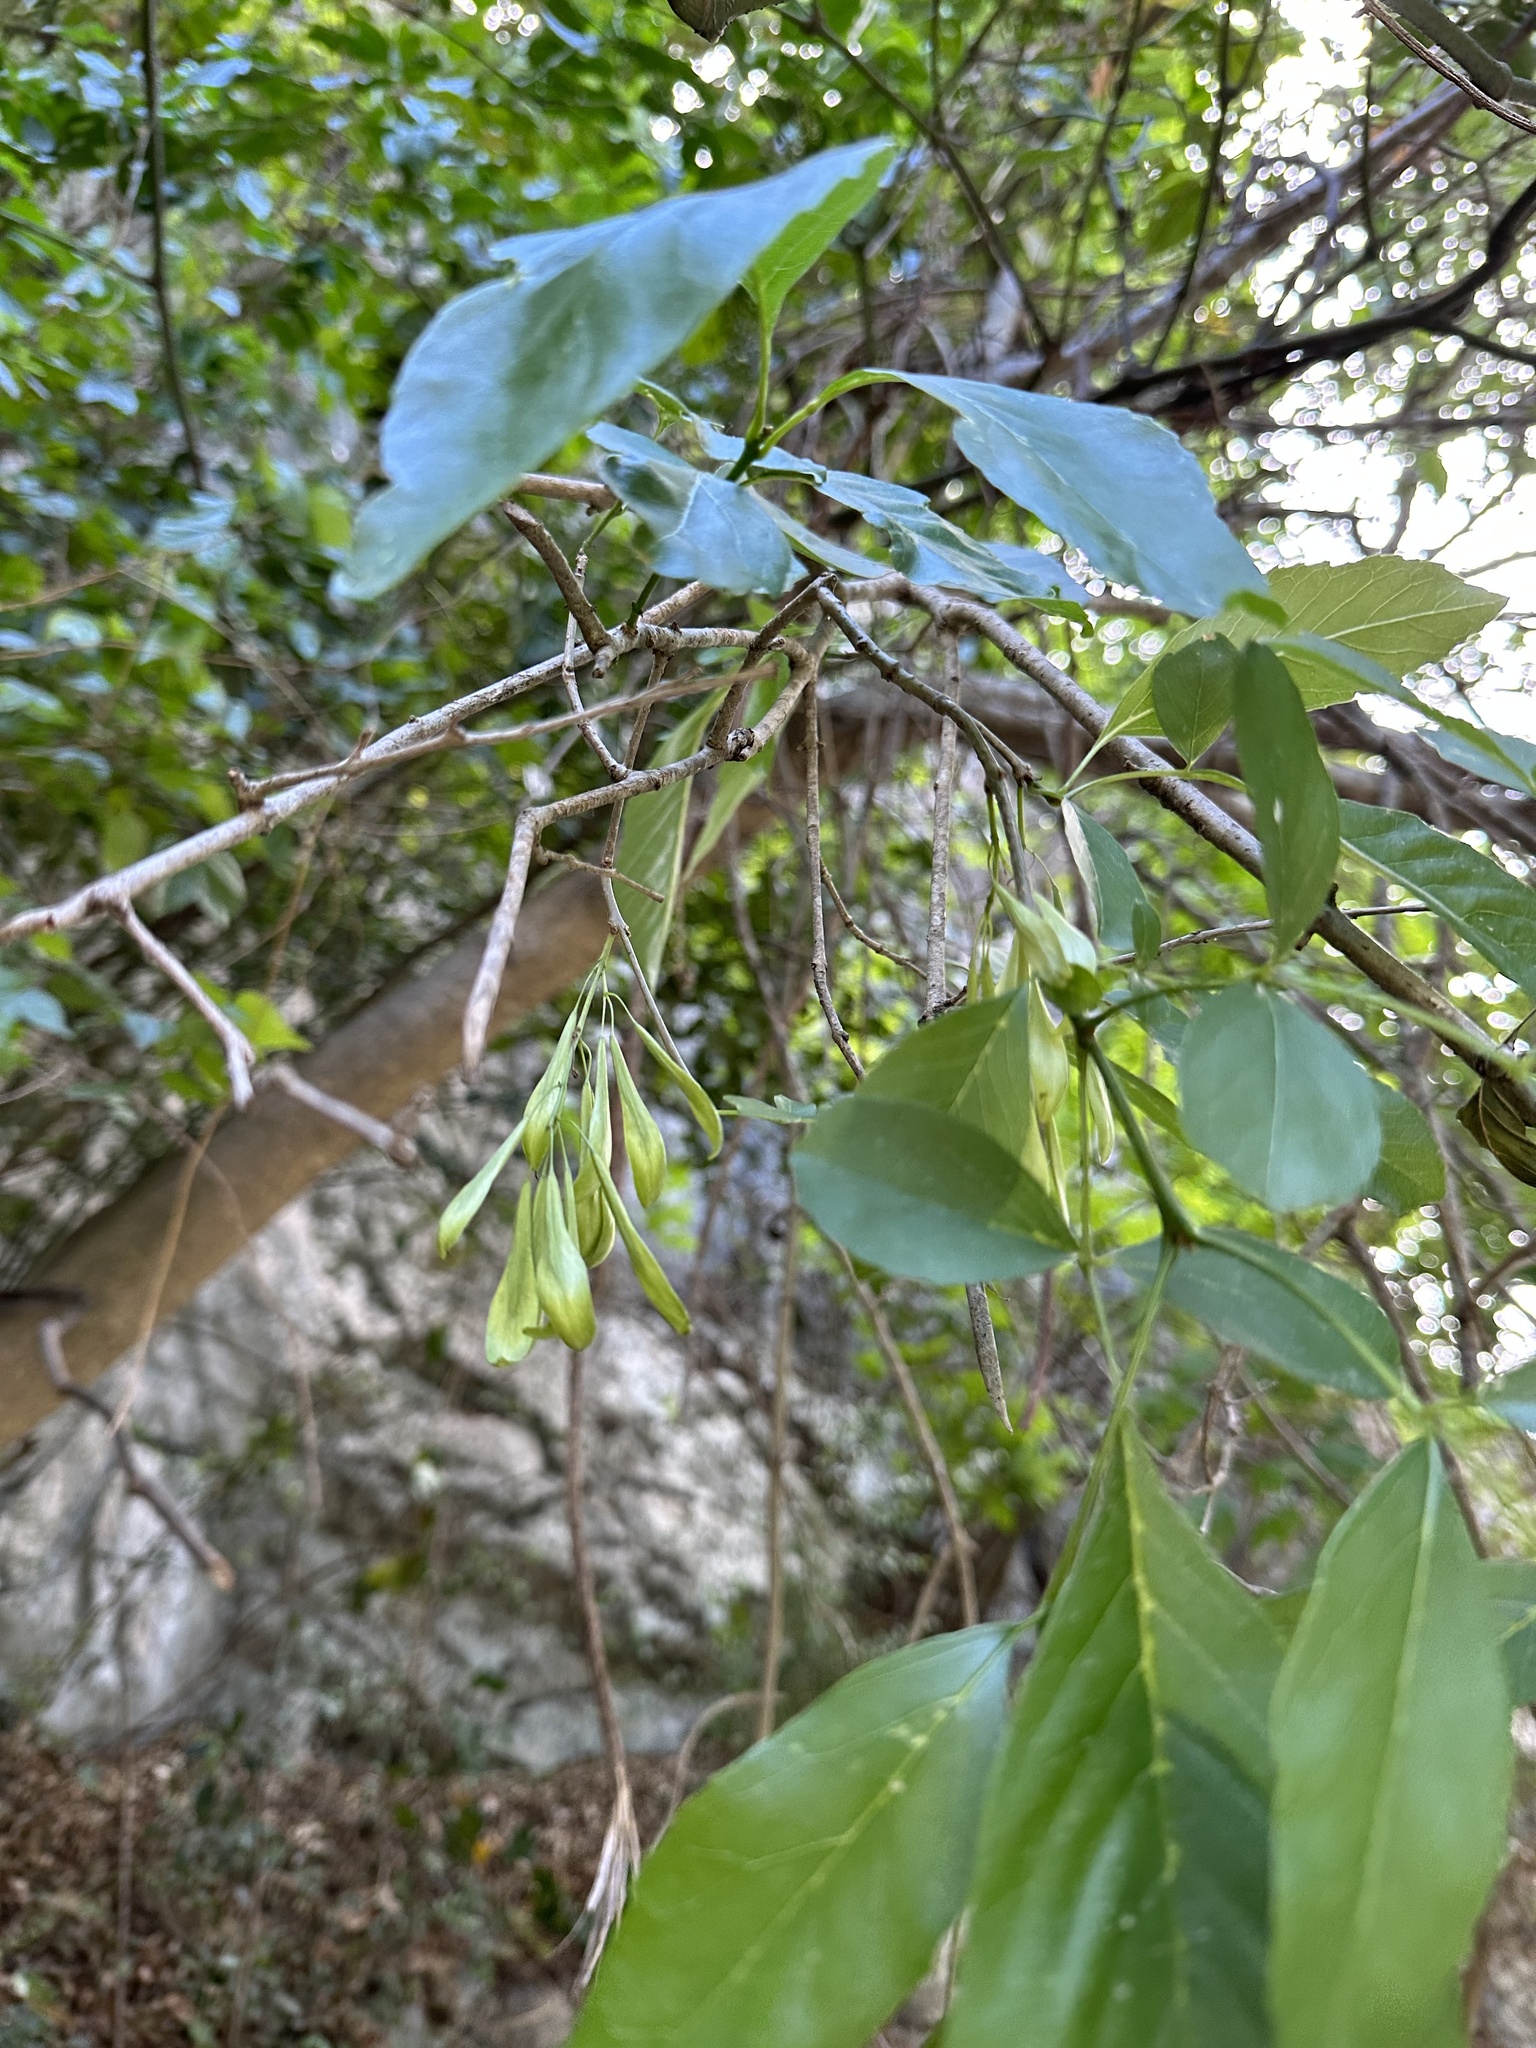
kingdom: Plantae
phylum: Tracheophyta
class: Magnoliopsida
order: Lamiales
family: Oleaceae
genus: Fraxinus
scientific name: Fraxinus berlandieriana
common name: Berlandier ash
